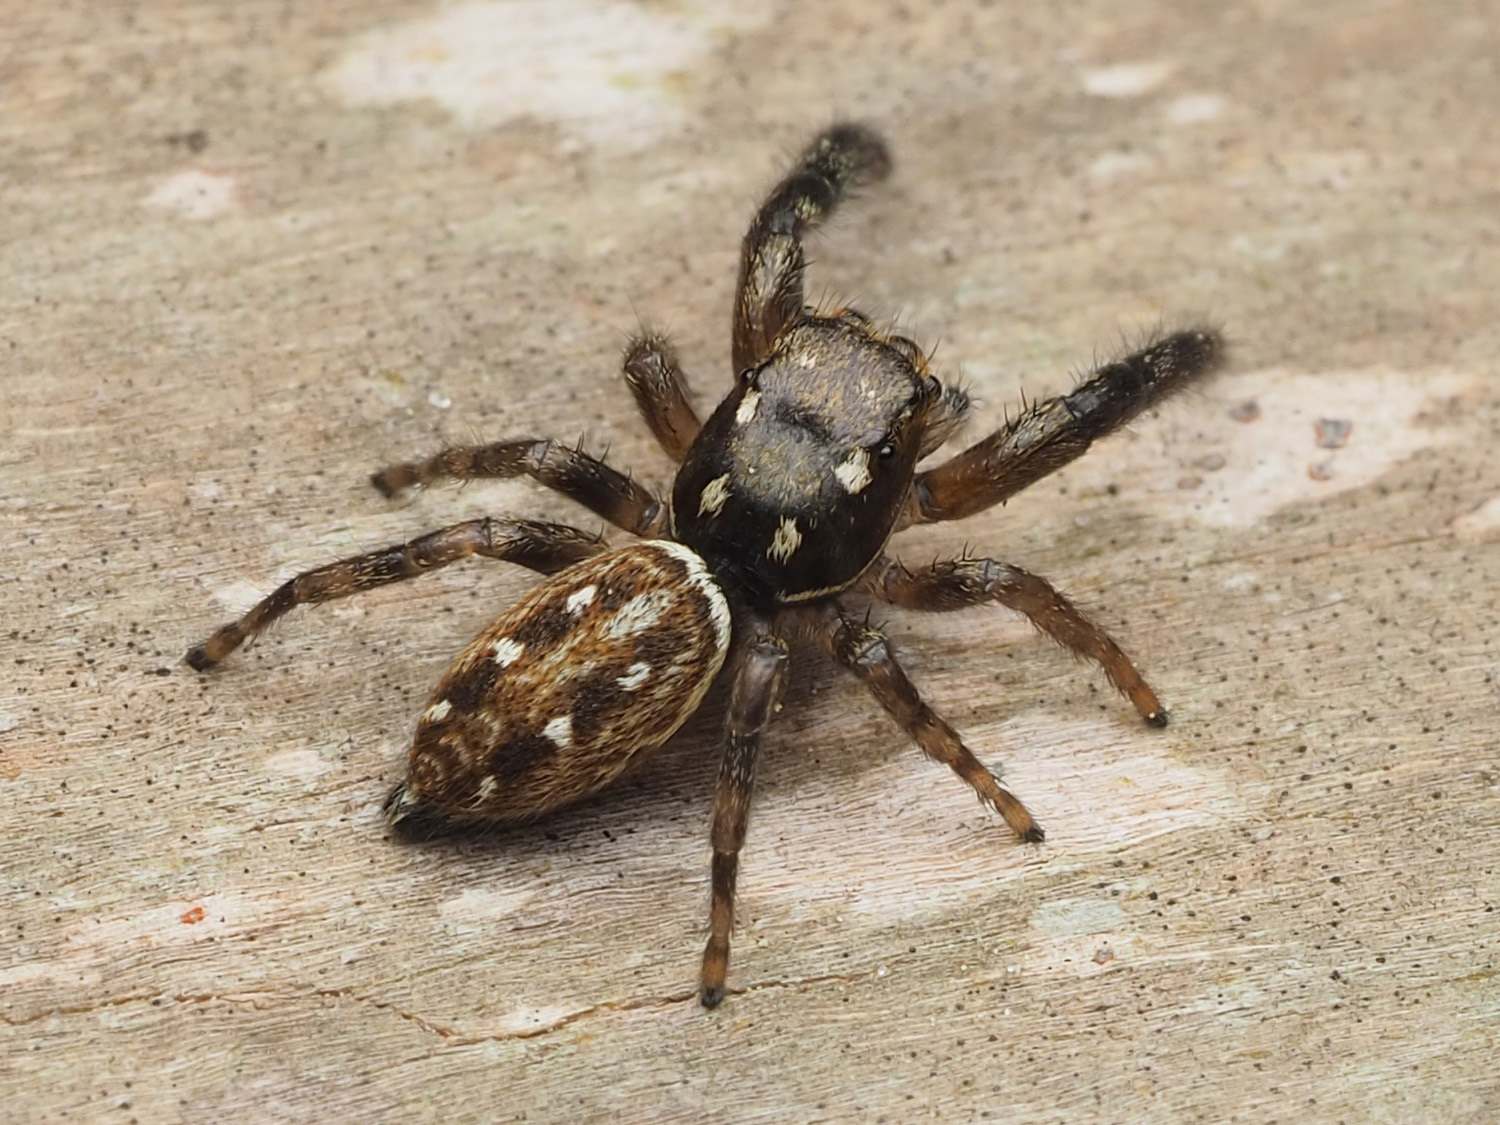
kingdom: Animalia
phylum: Arthropoda
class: Arachnida
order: Araneae
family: Salticidae
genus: Marpissa
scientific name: Marpissa bina
